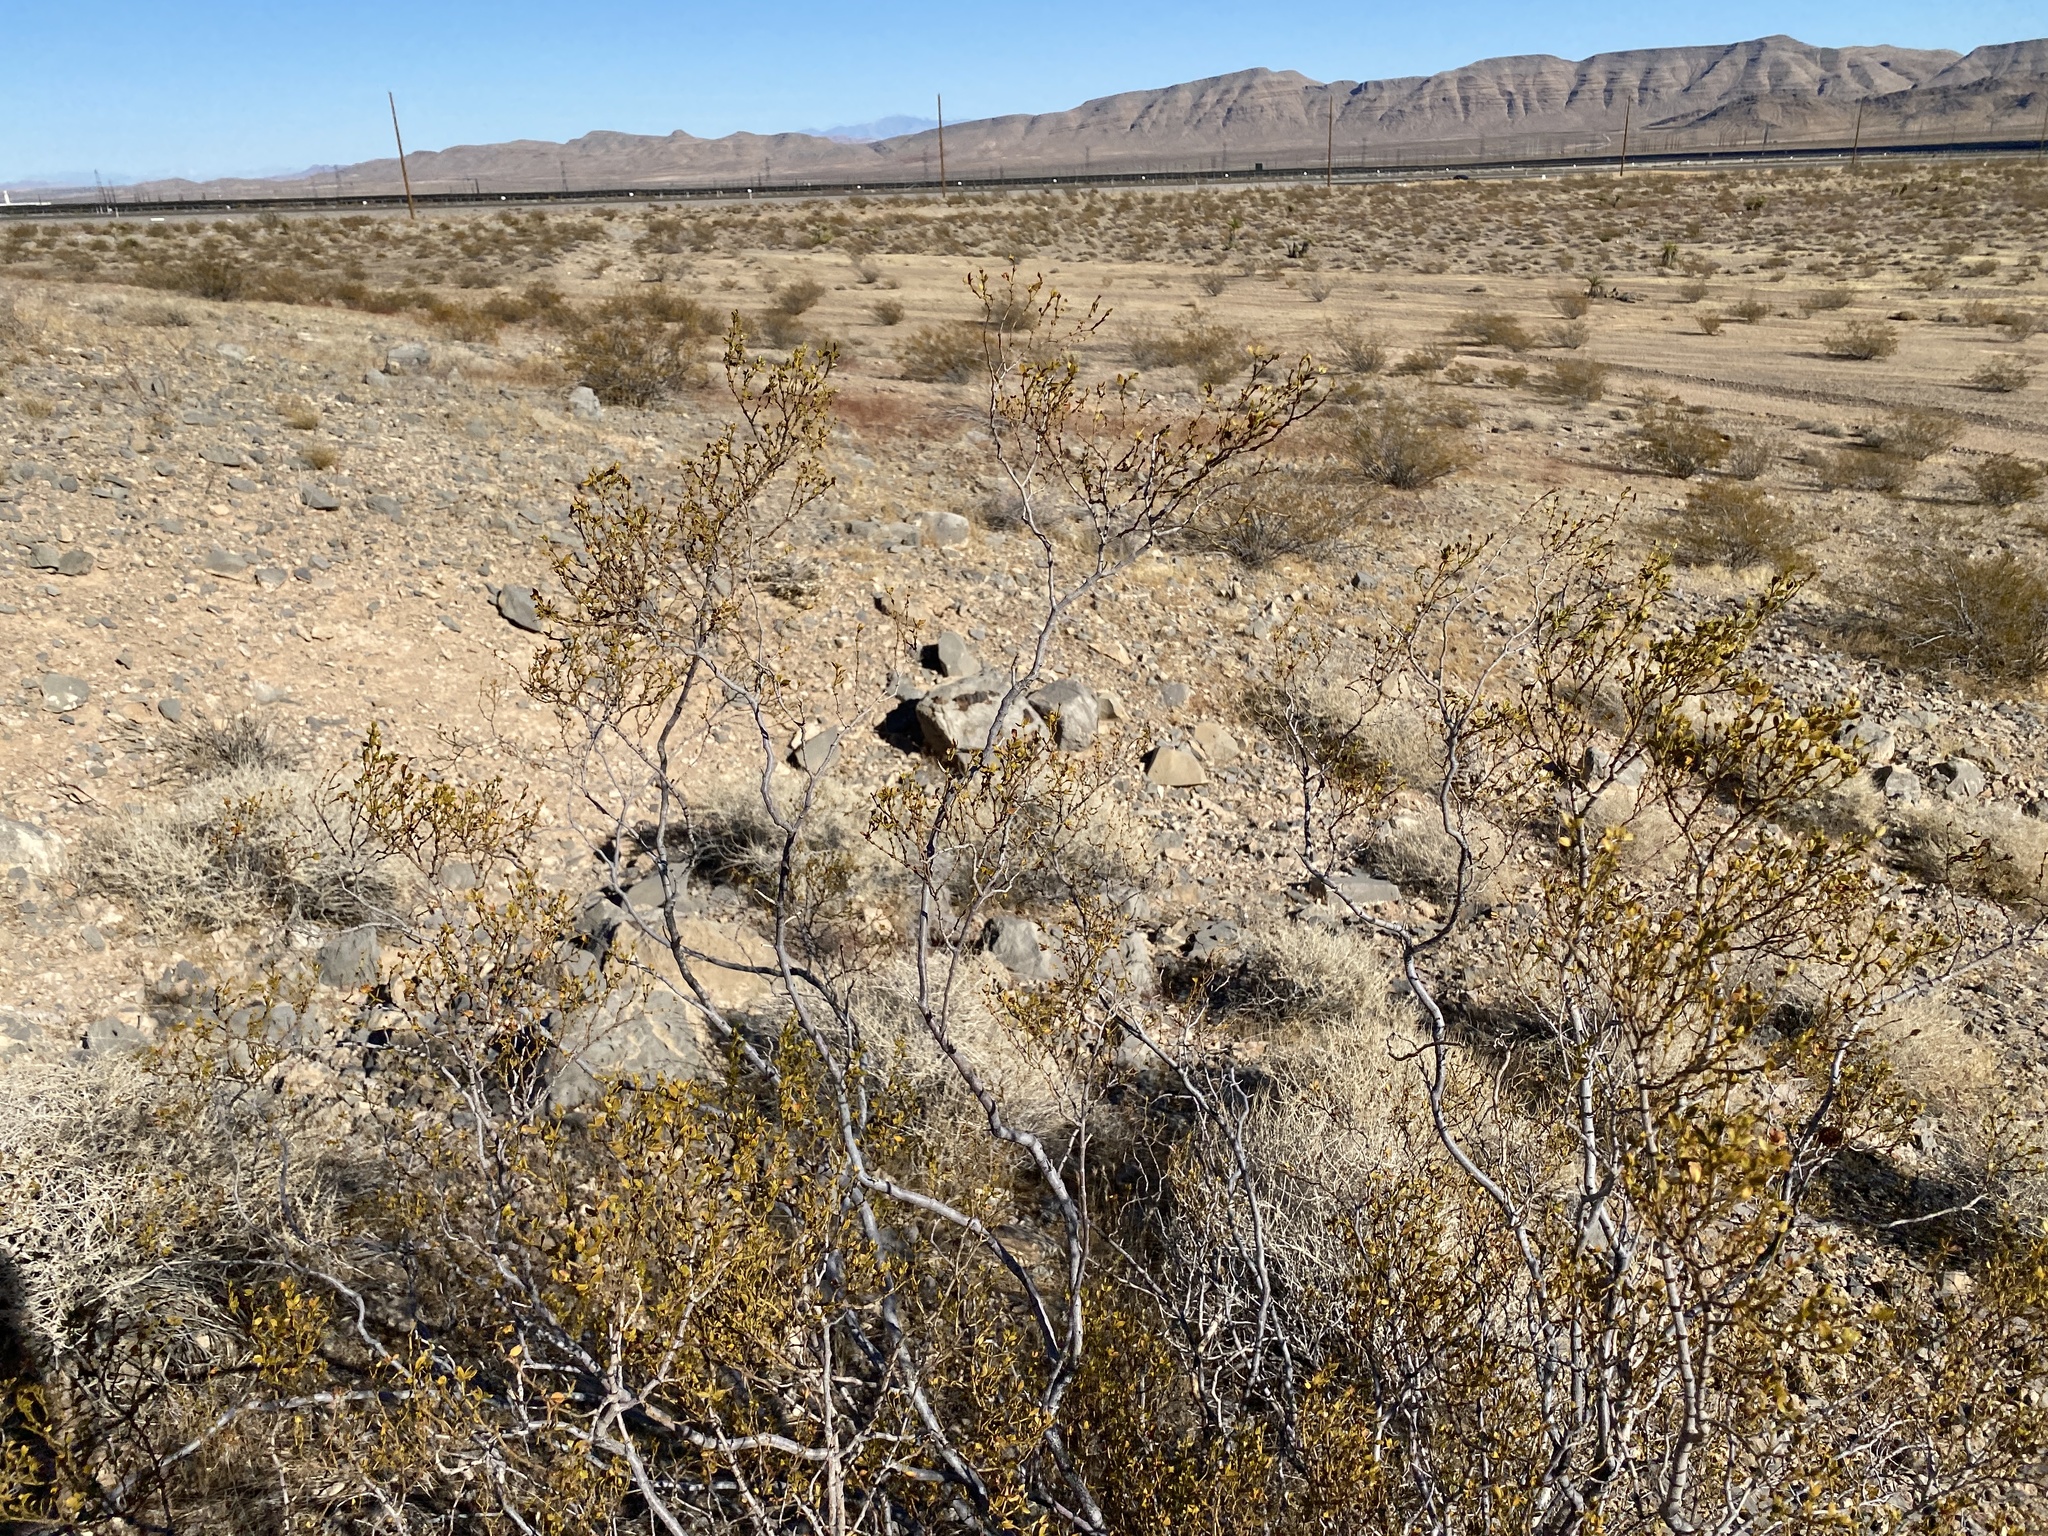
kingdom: Plantae
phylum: Tracheophyta
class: Magnoliopsida
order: Zygophyllales
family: Zygophyllaceae
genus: Larrea
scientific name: Larrea tridentata
